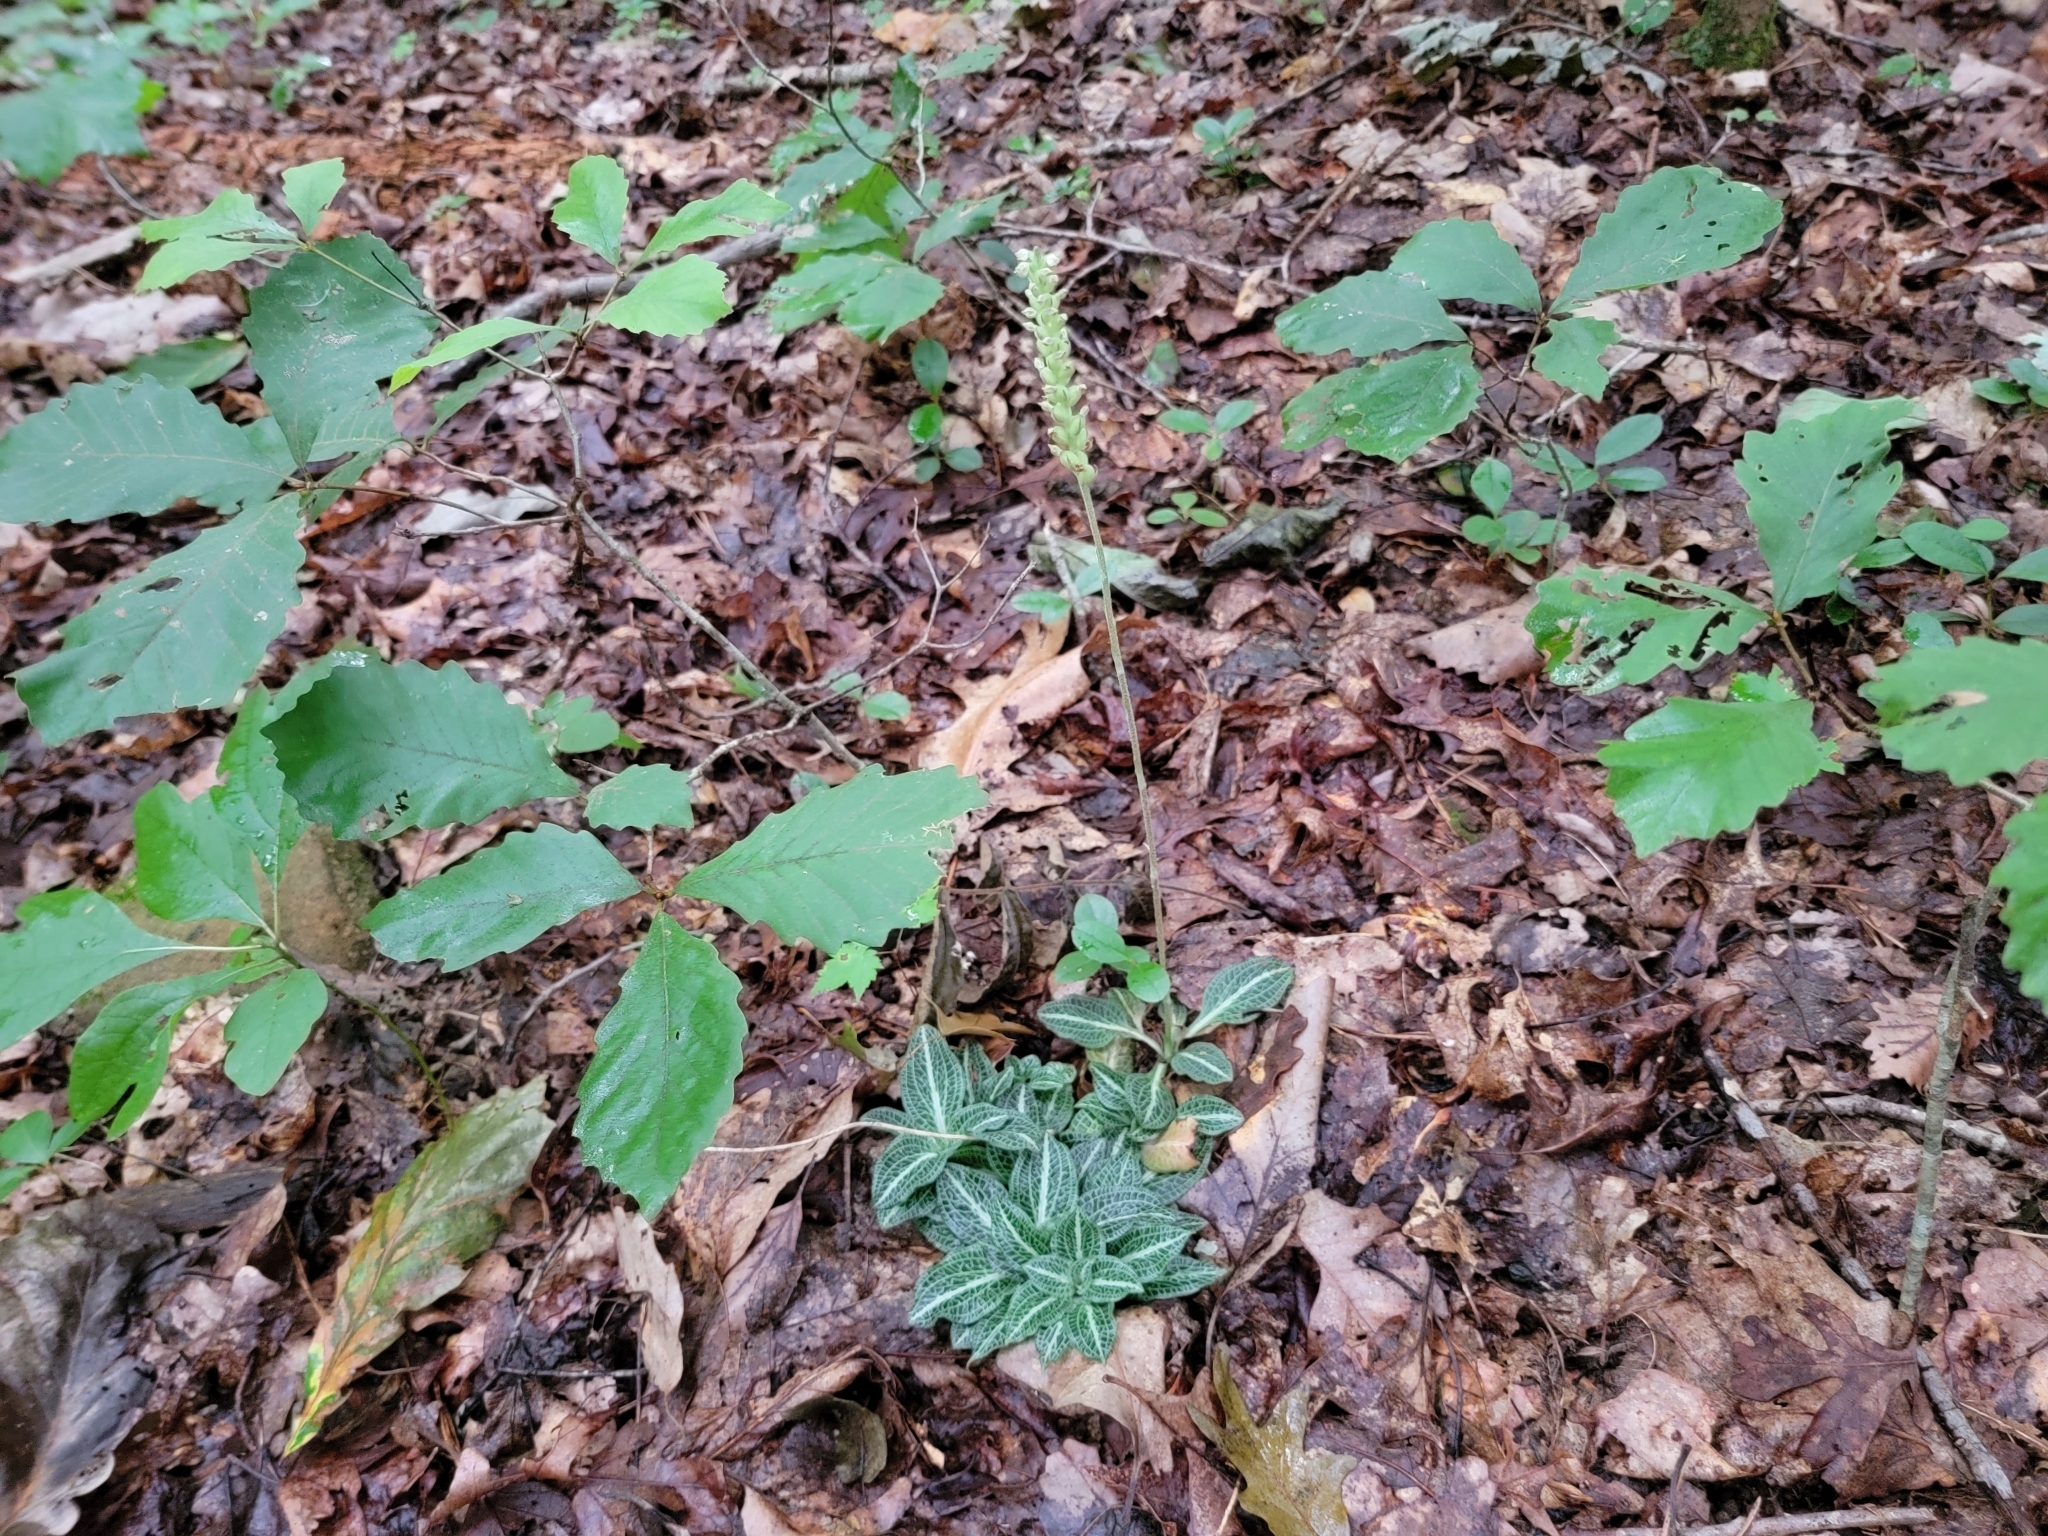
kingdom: Plantae
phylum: Tracheophyta
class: Liliopsida
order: Asparagales
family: Orchidaceae
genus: Goodyera
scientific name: Goodyera pubescens
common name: Downy rattlesnake-plantain
